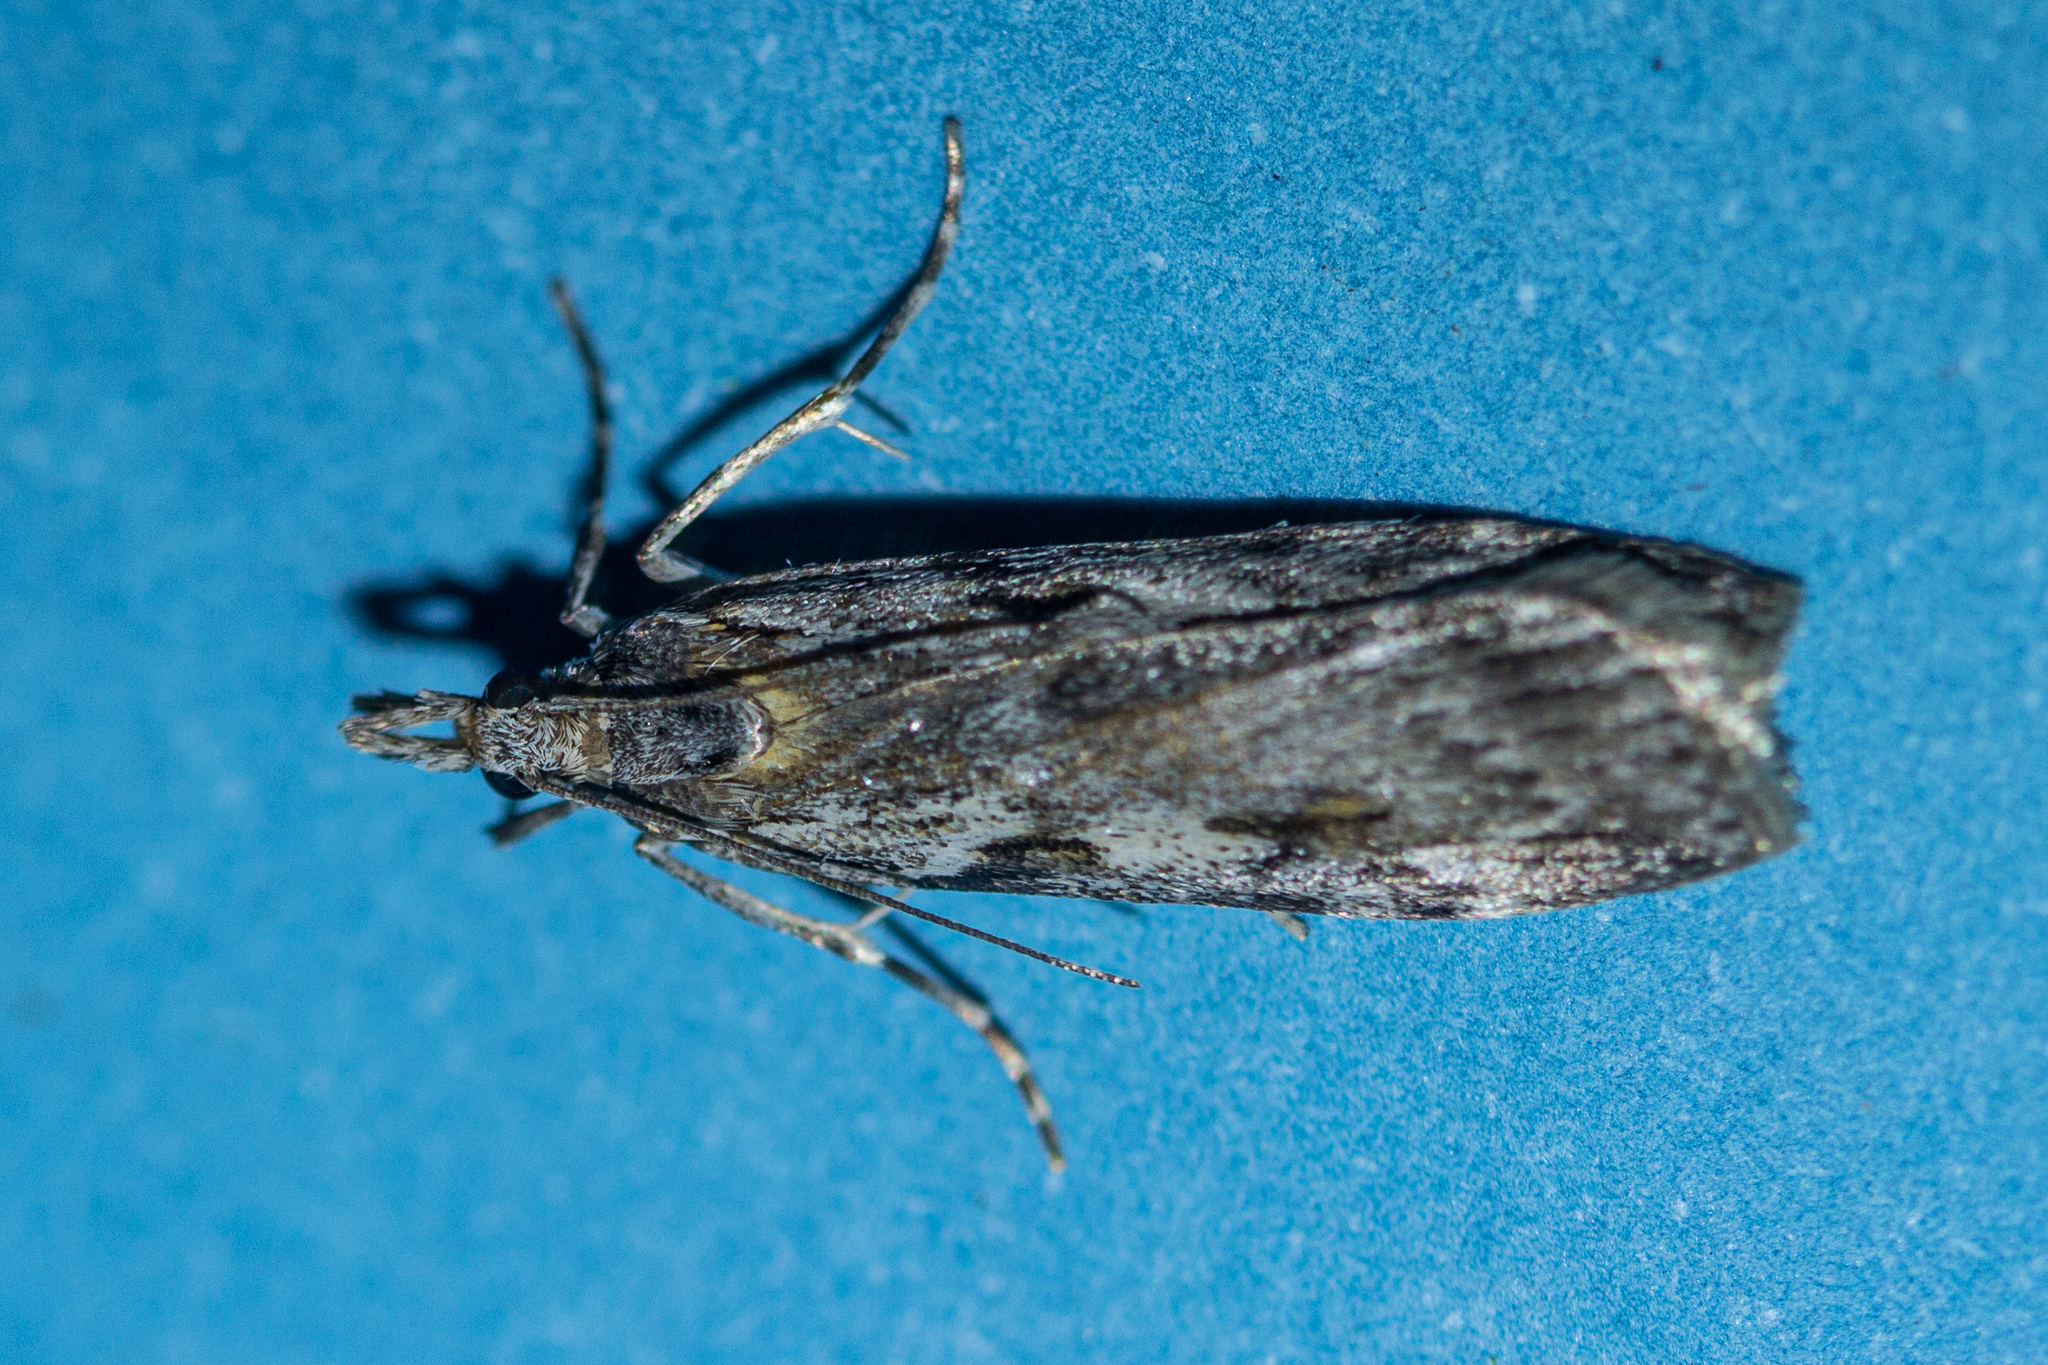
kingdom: Animalia
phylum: Arthropoda
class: Insecta
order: Lepidoptera
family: Crambidae
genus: Scoparia
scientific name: Scoparia halopis
